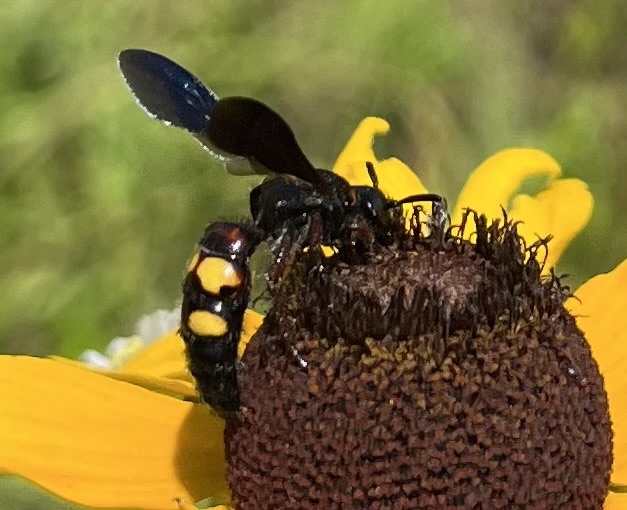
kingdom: Animalia
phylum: Arthropoda
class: Insecta
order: Hymenoptera
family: Scoliidae
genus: Scolia
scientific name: Scolia nobilitata
